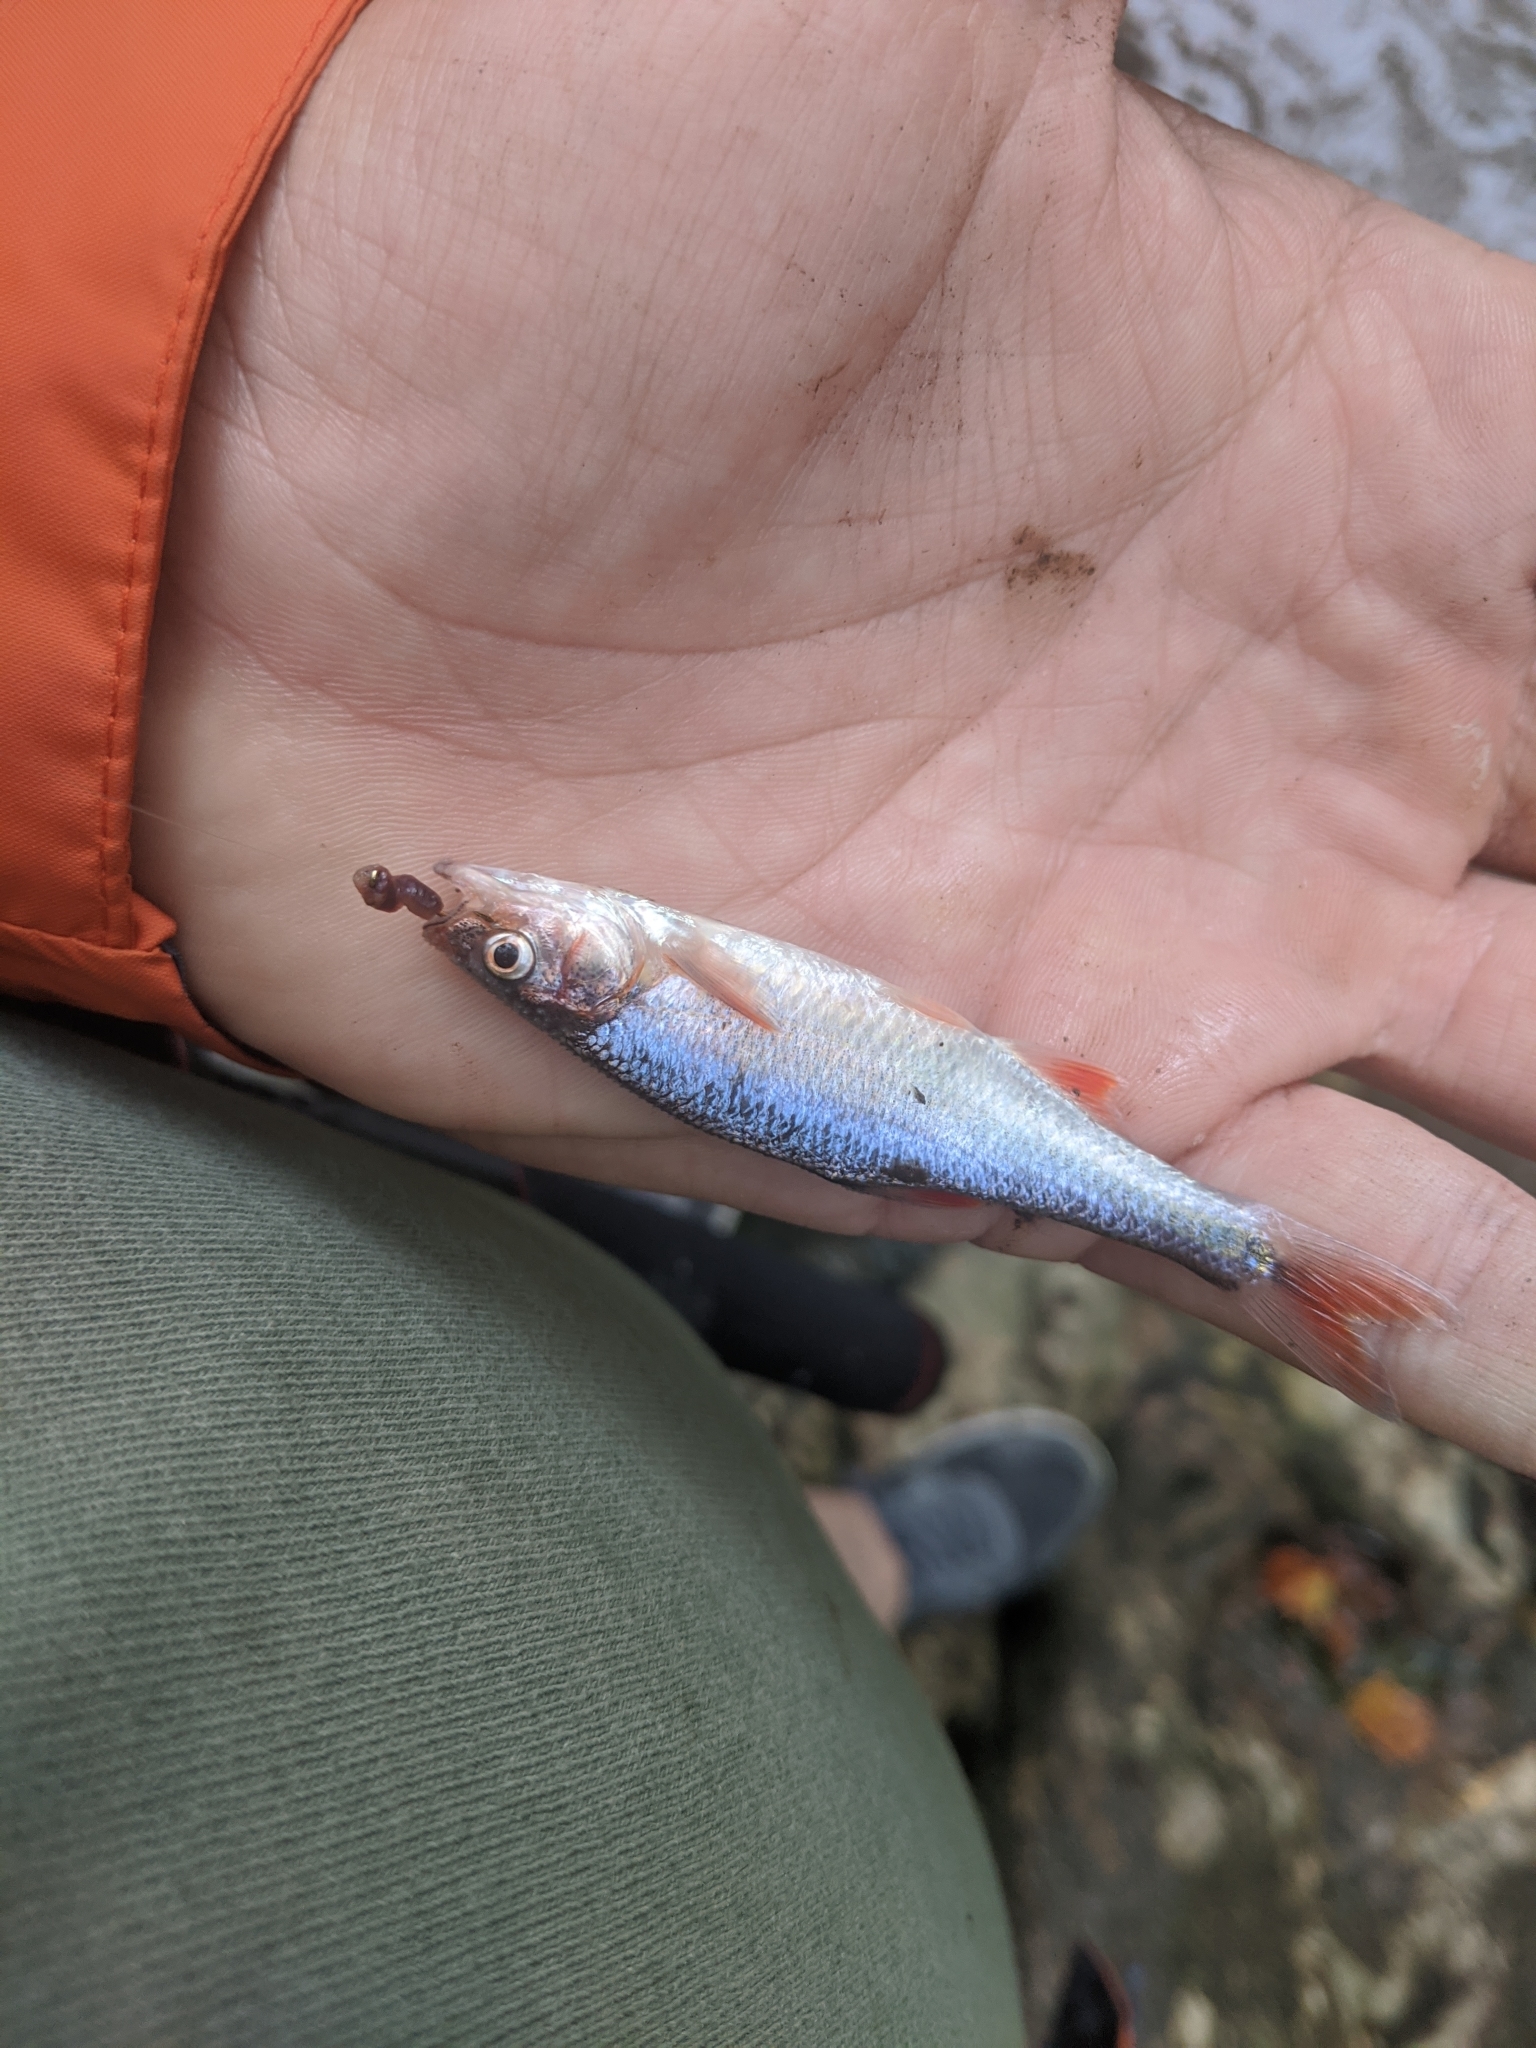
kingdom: Animalia
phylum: Chordata
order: Cypriniformes
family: Cyprinidae
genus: Lythrurus
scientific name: Lythrurus fasciolaris
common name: Scarlet shiner
